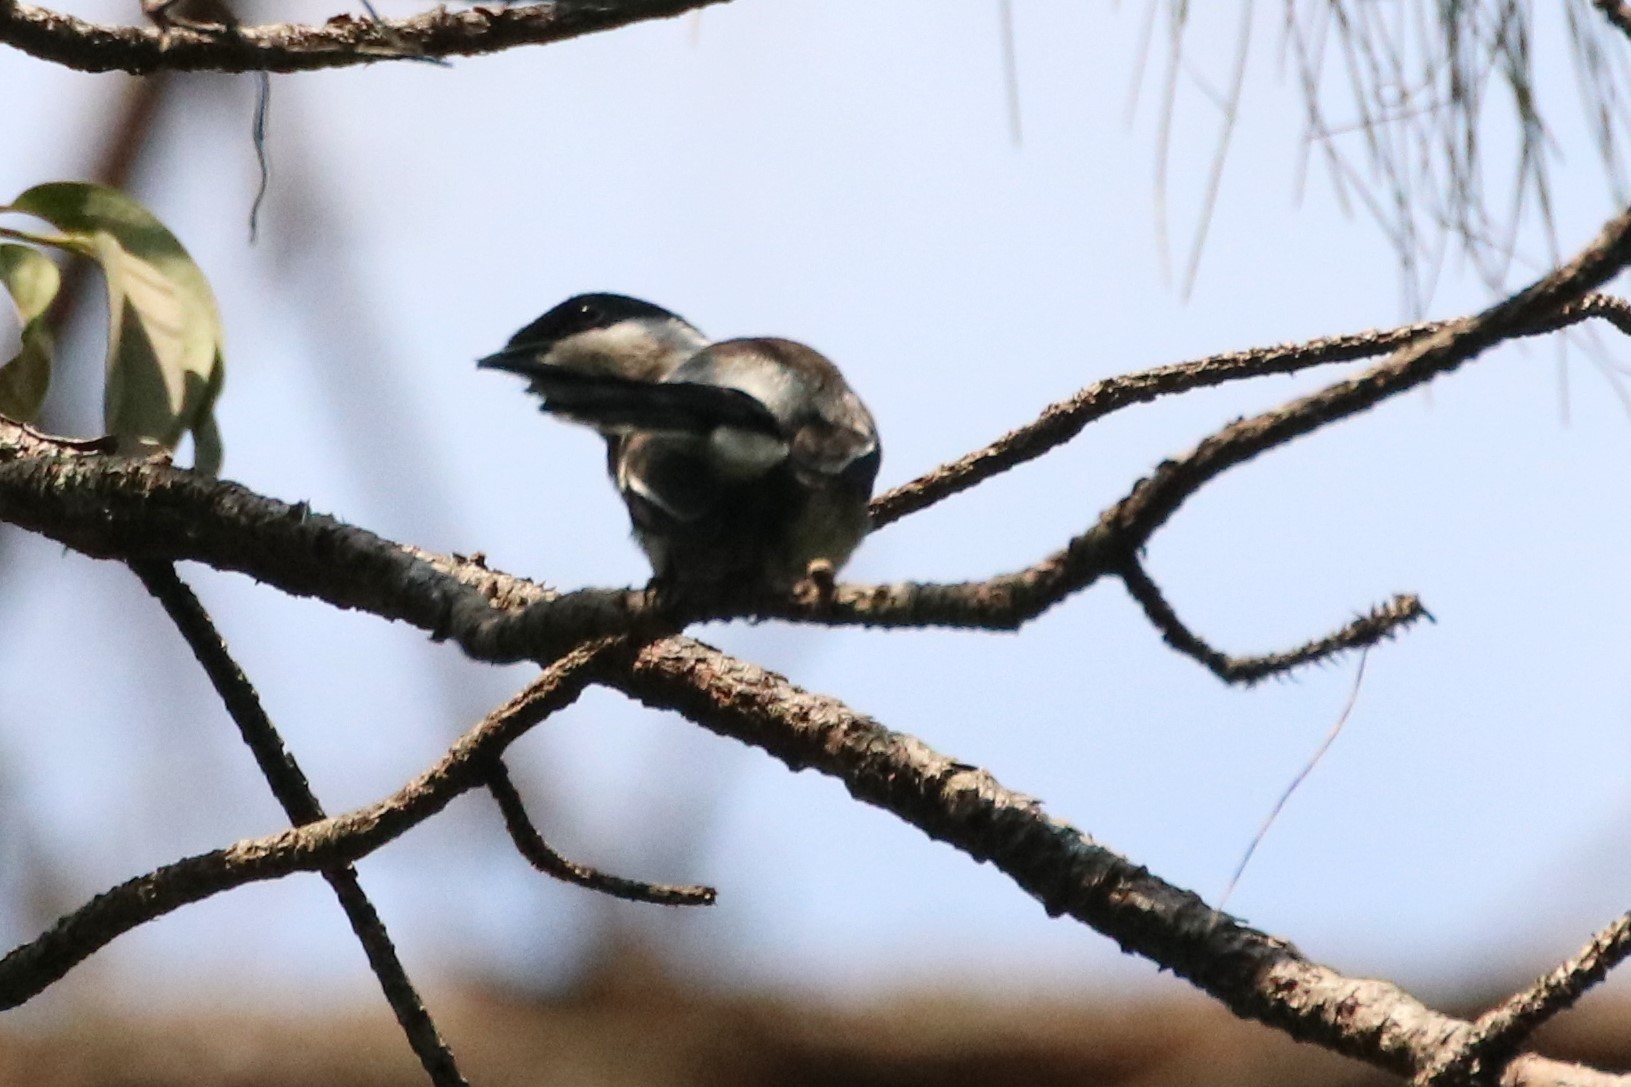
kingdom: Animalia
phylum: Chordata
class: Aves
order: Passeriformes
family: Tephrodornithidae
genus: Hemipus
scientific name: Hemipus picatus
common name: Bar-winged flycatcher-shrike
